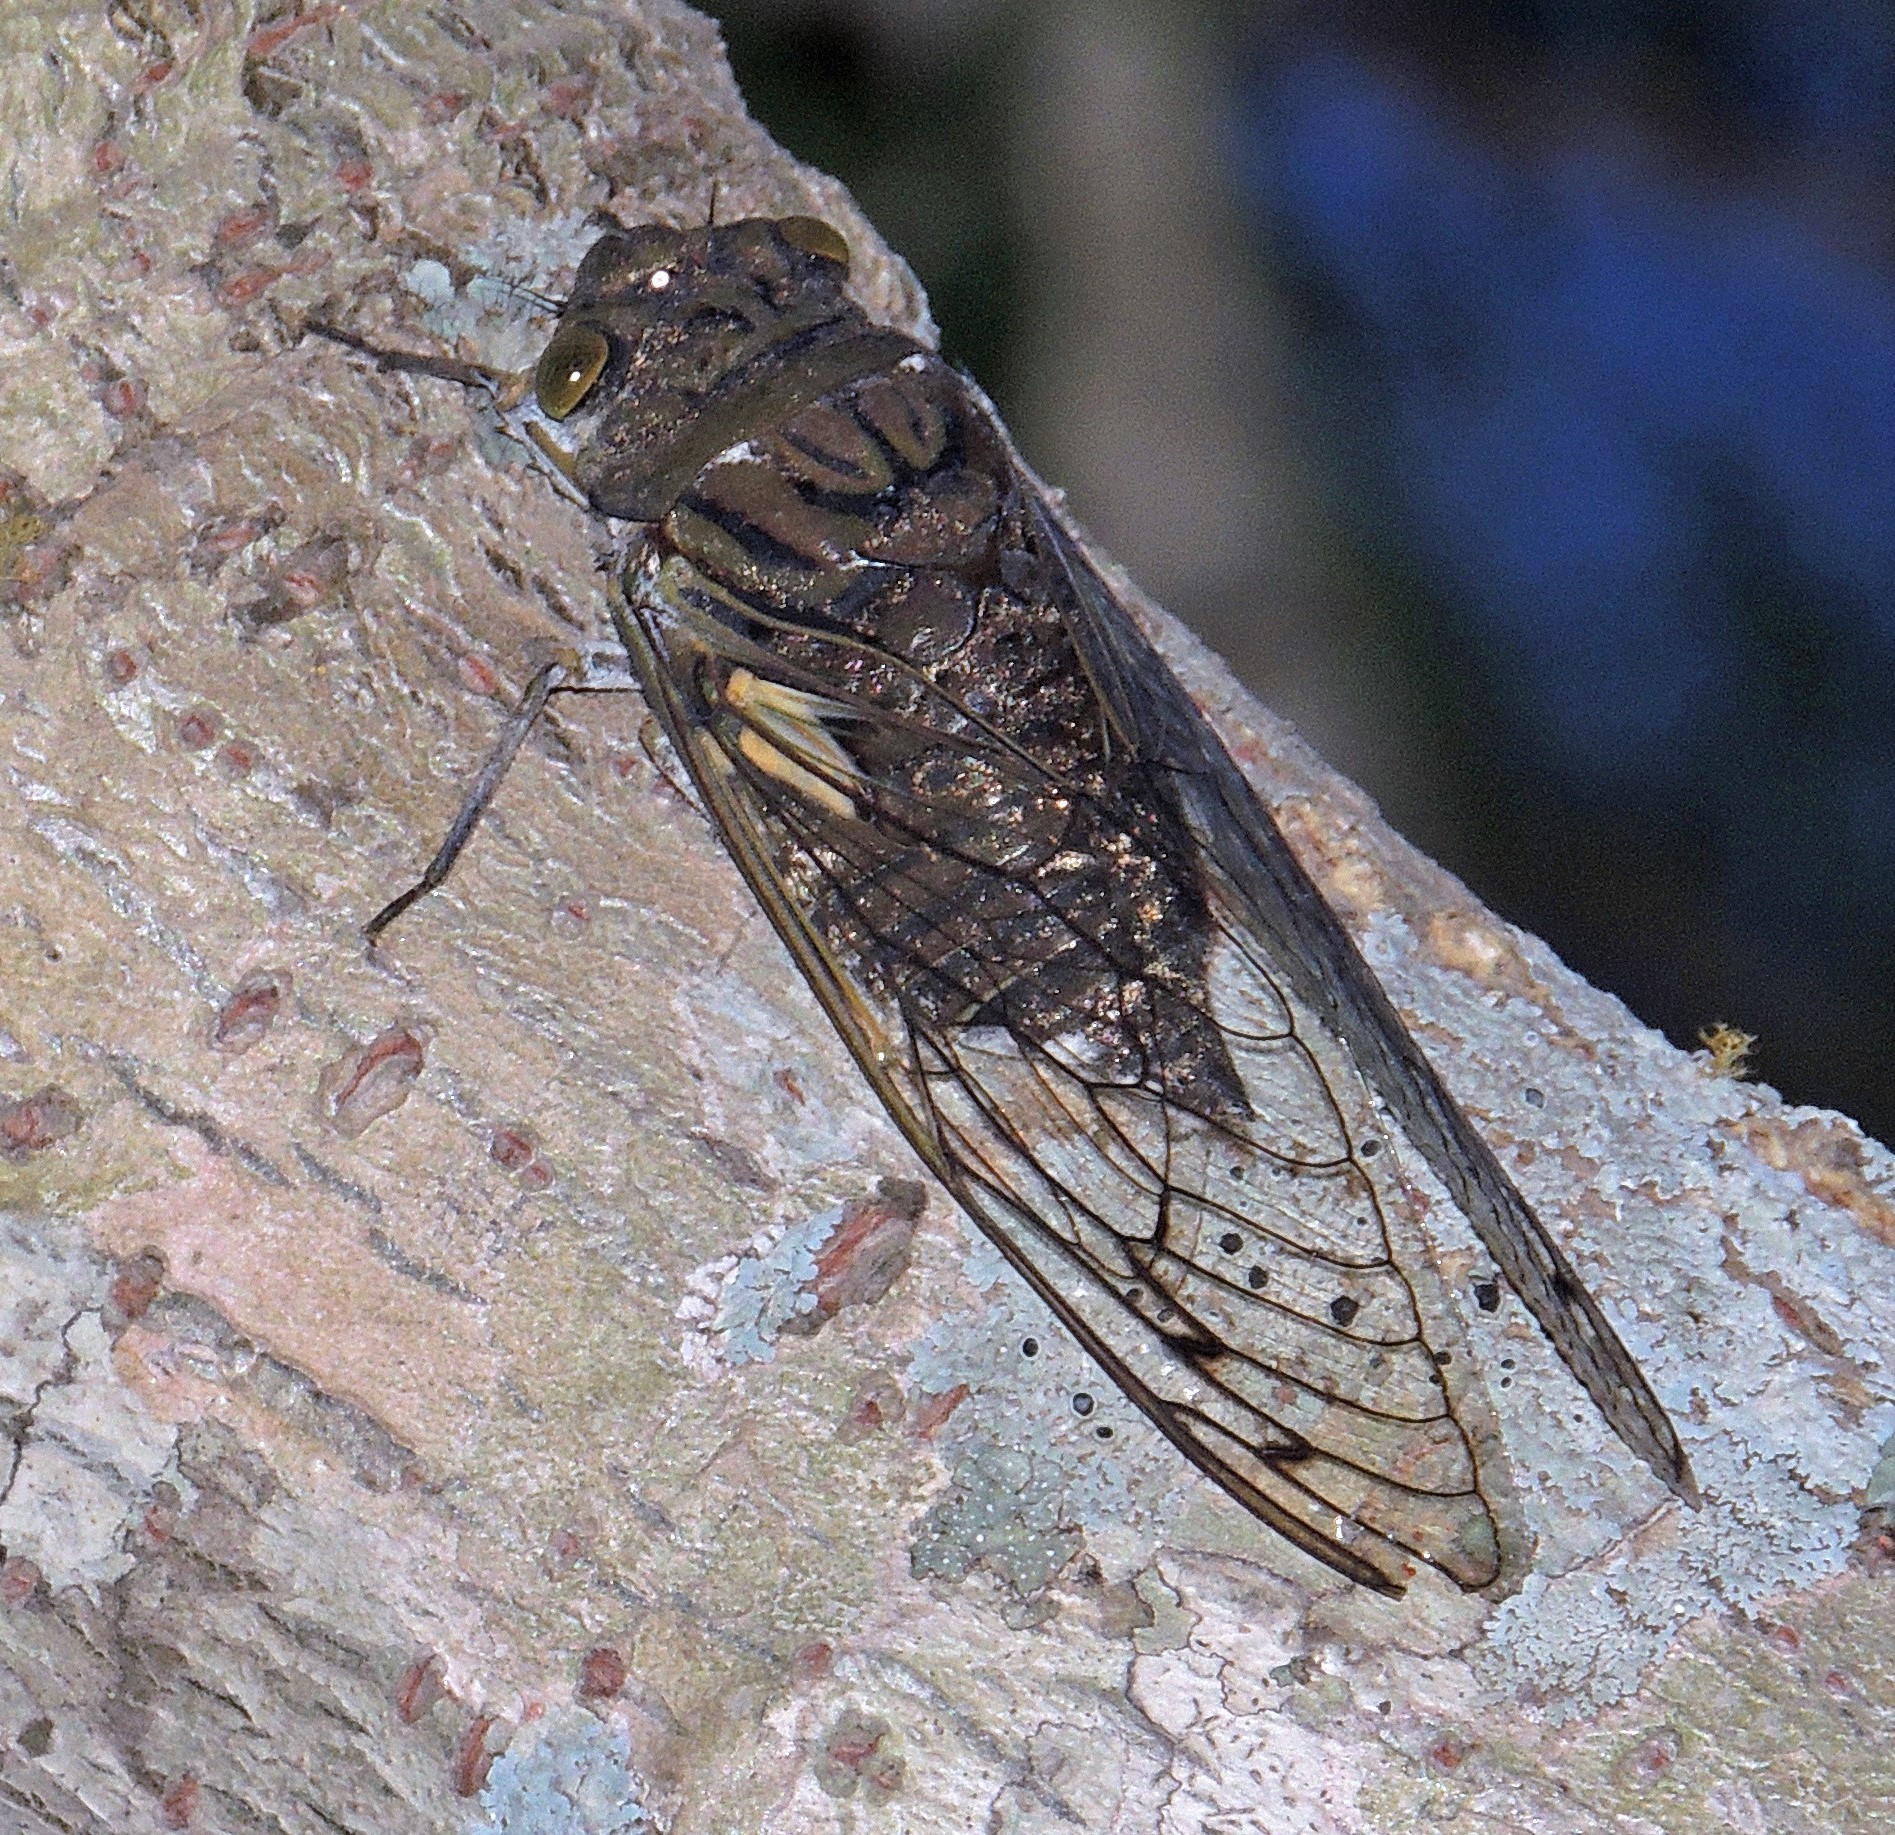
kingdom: Animalia
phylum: Arthropoda
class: Insecta
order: Hemiptera
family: Cicadidae
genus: Quesada
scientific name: Quesada gigas
